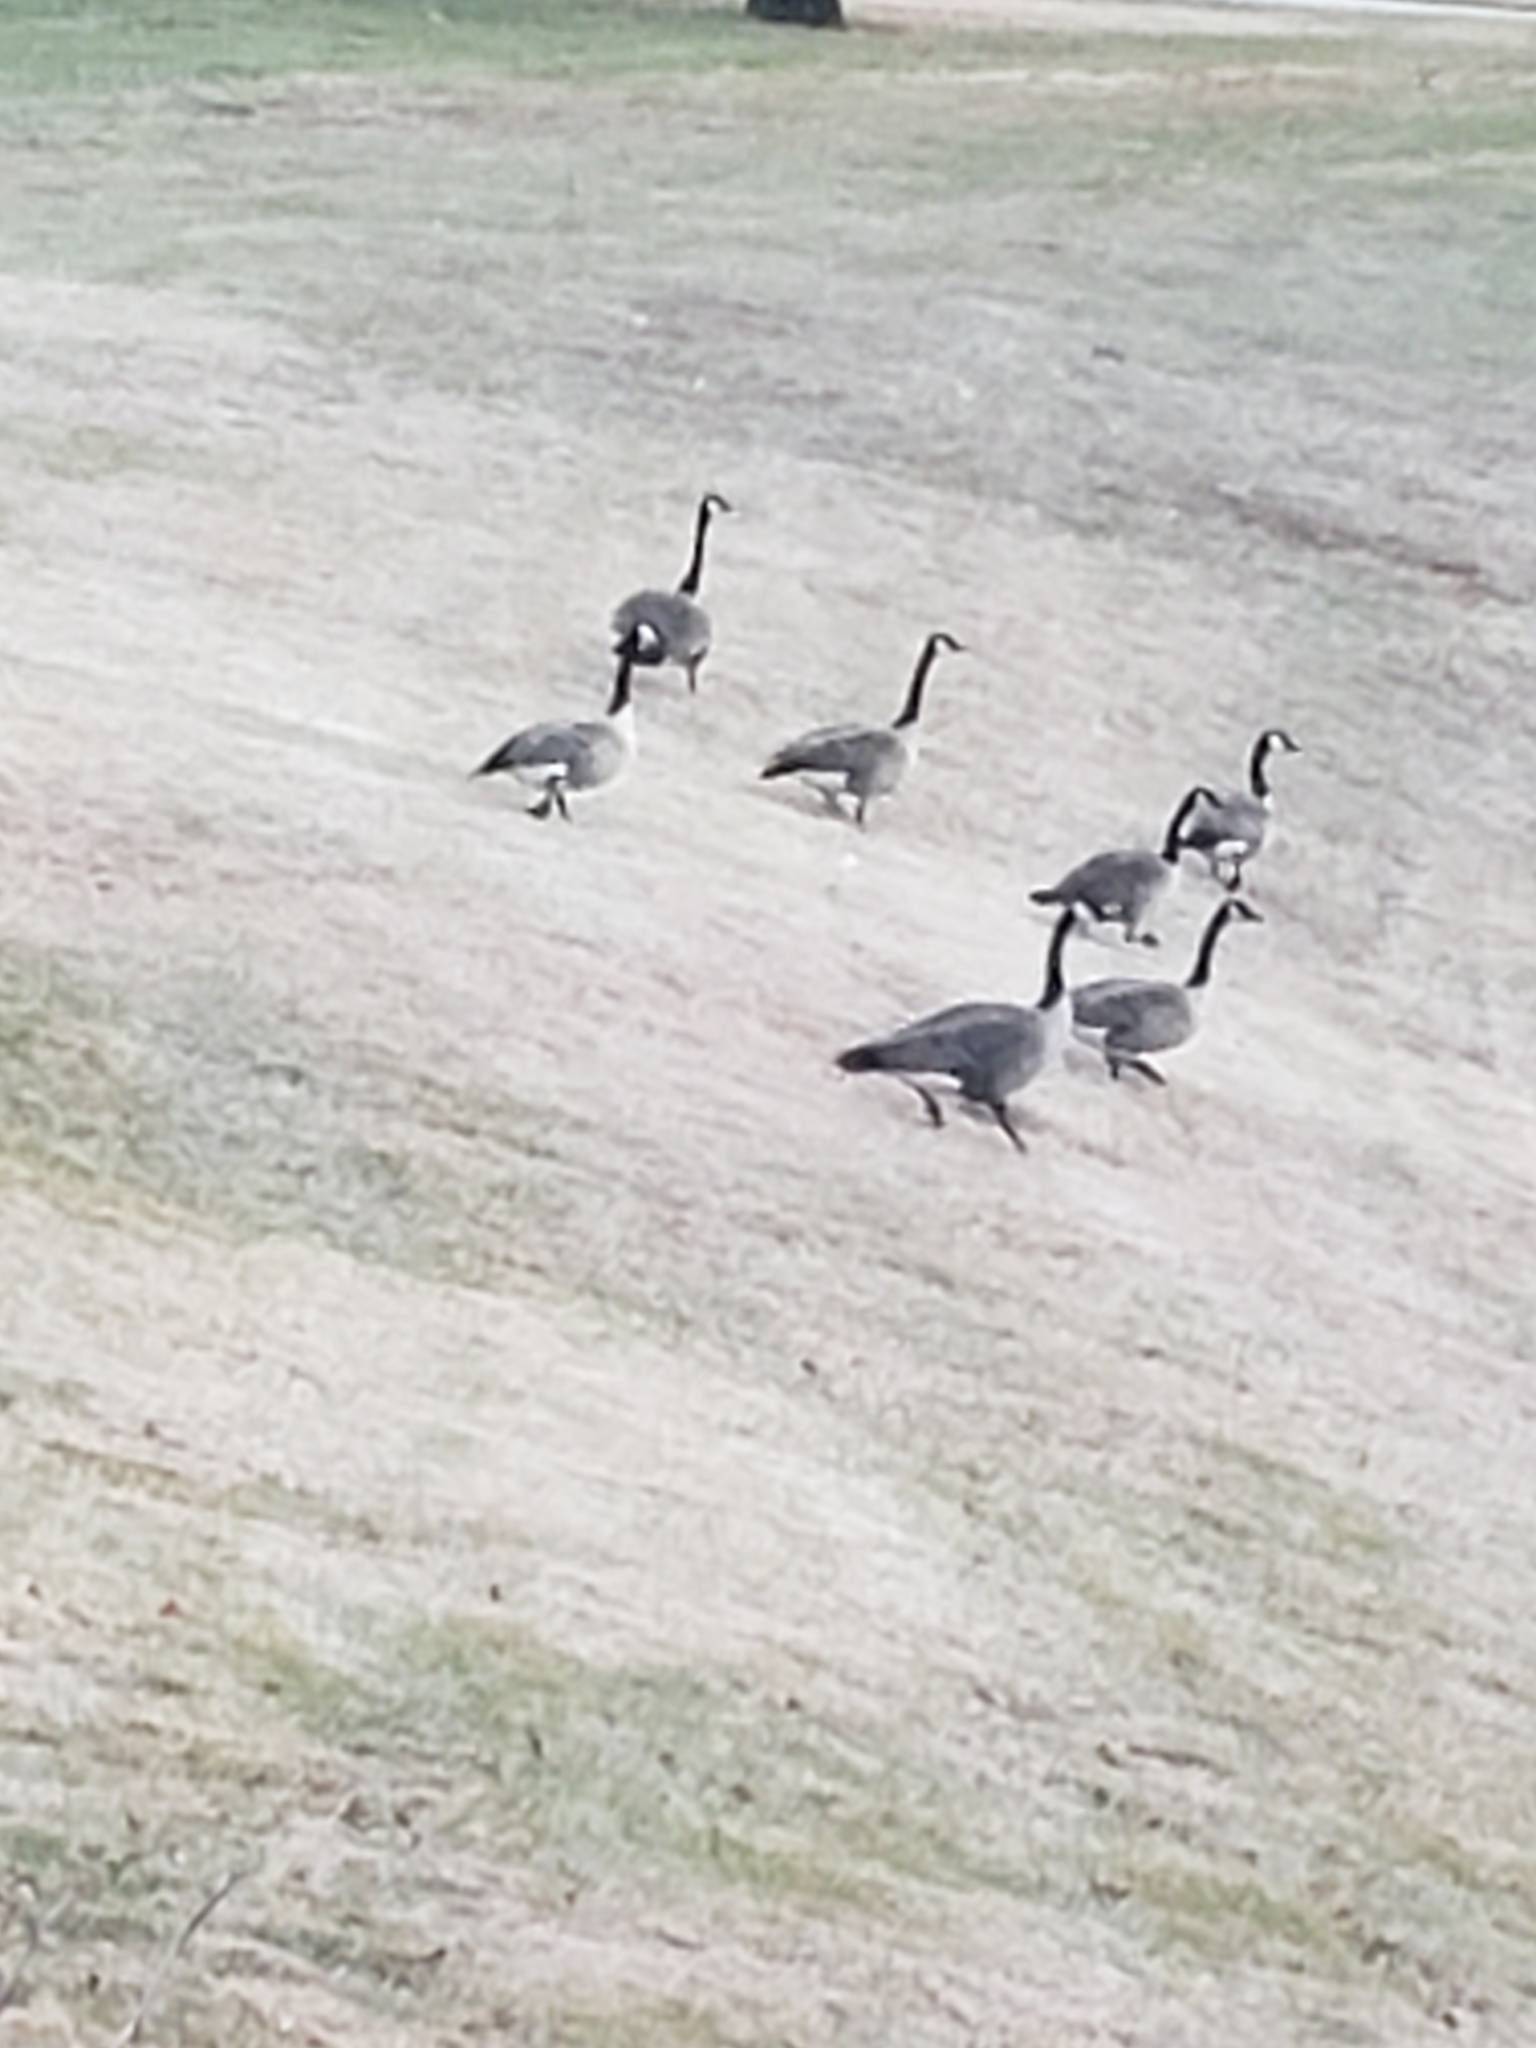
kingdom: Animalia
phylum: Chordata
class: Aves
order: Anseriformes
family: Anatidae
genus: Branta
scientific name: Branta canadensis
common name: Canada goose
